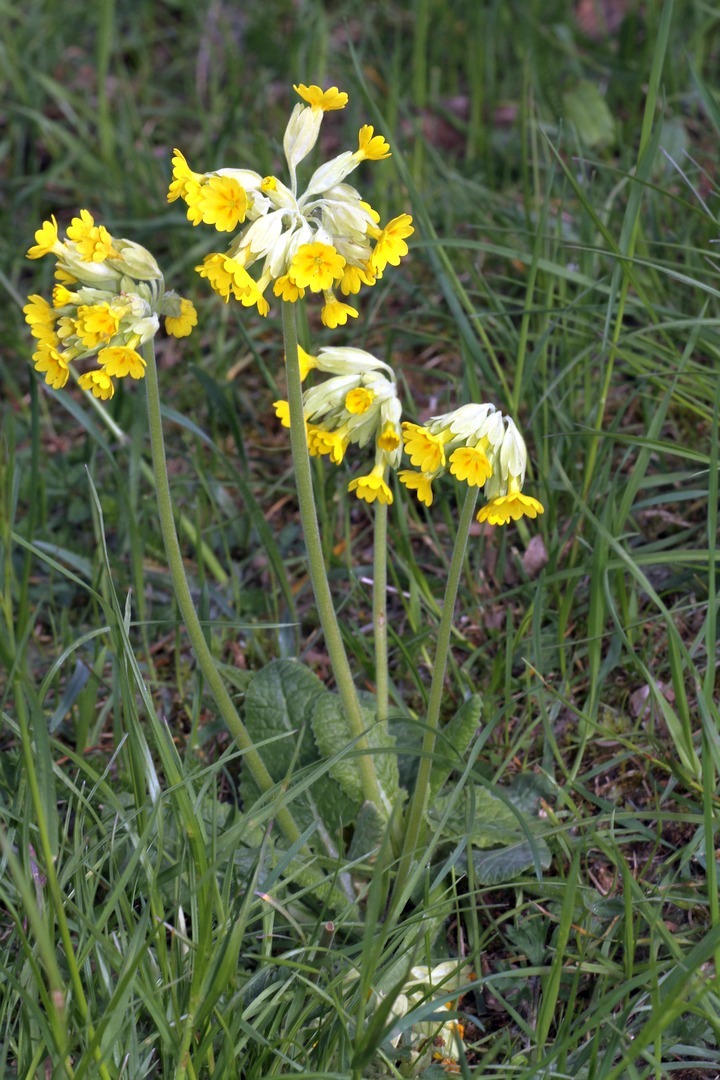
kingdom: Plantae
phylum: Tracheophyta
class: Magnoliopsida
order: Ericales
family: Primulaceae
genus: Primula
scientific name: Primula veris
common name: Cowslip
